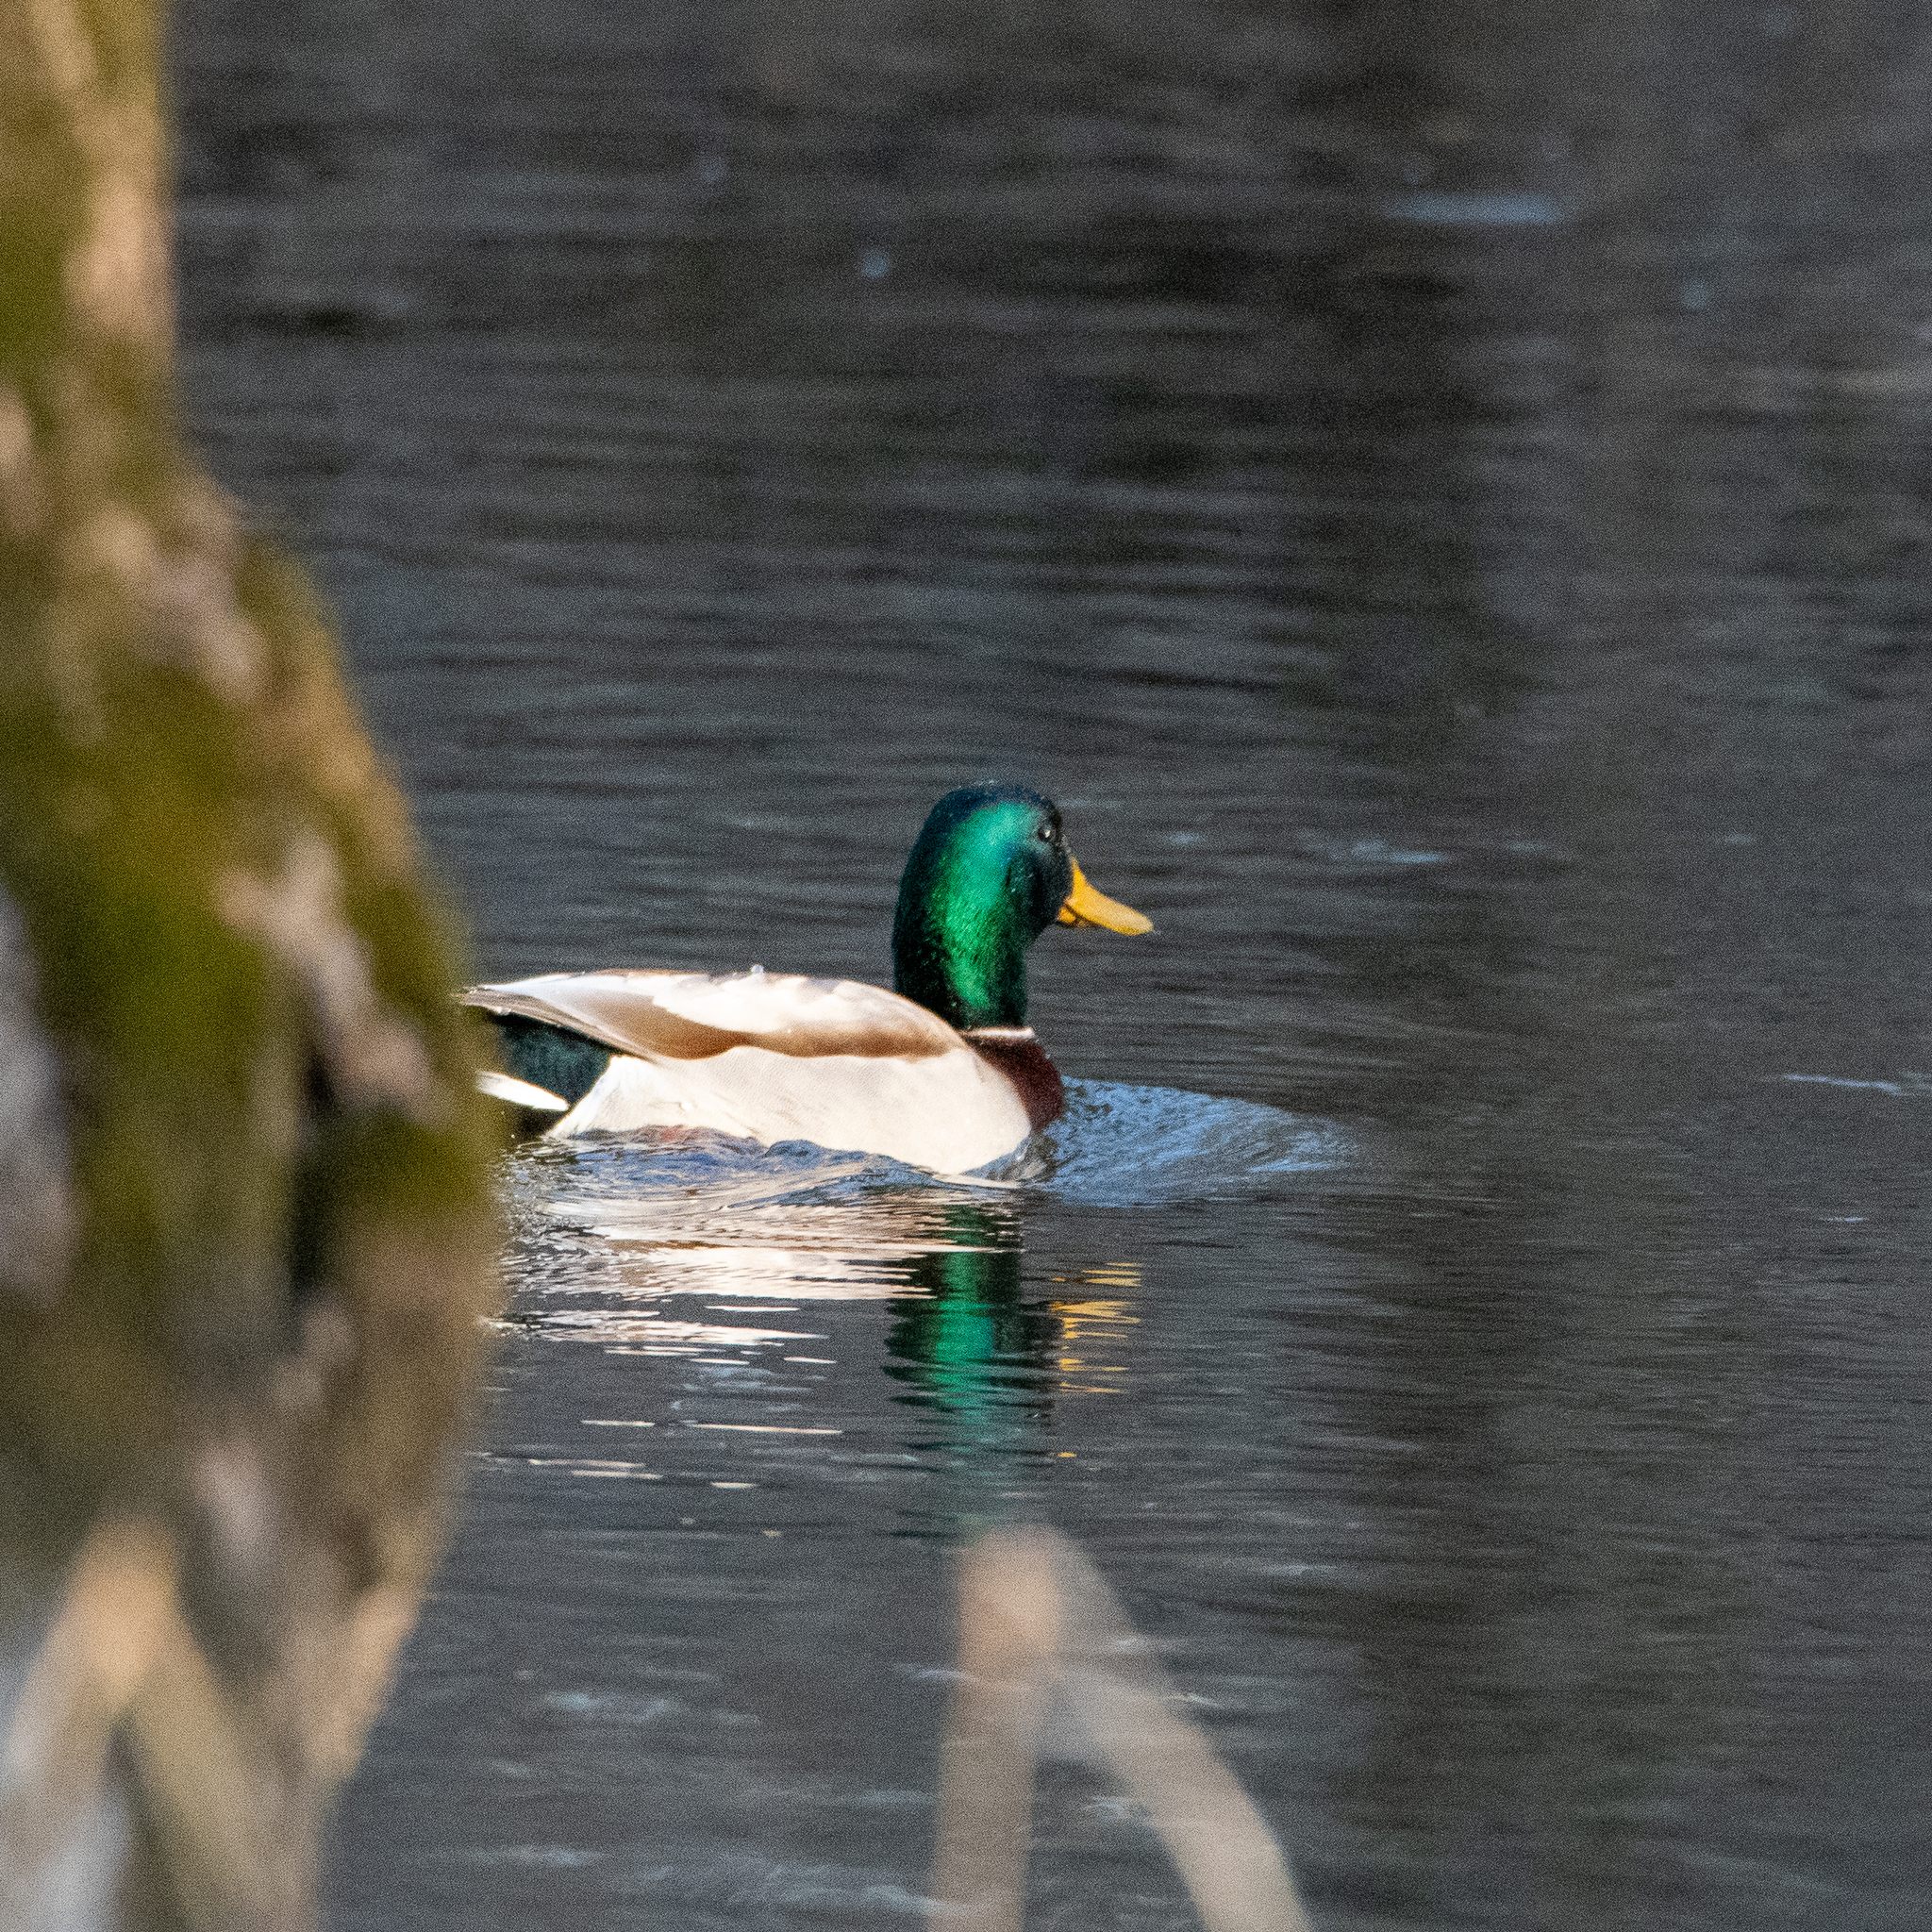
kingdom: Animalia
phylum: Chordata
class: Aves
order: Anseriformes
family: Anatidae
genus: Anas
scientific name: Anas platyrhynchos
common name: Mallard
